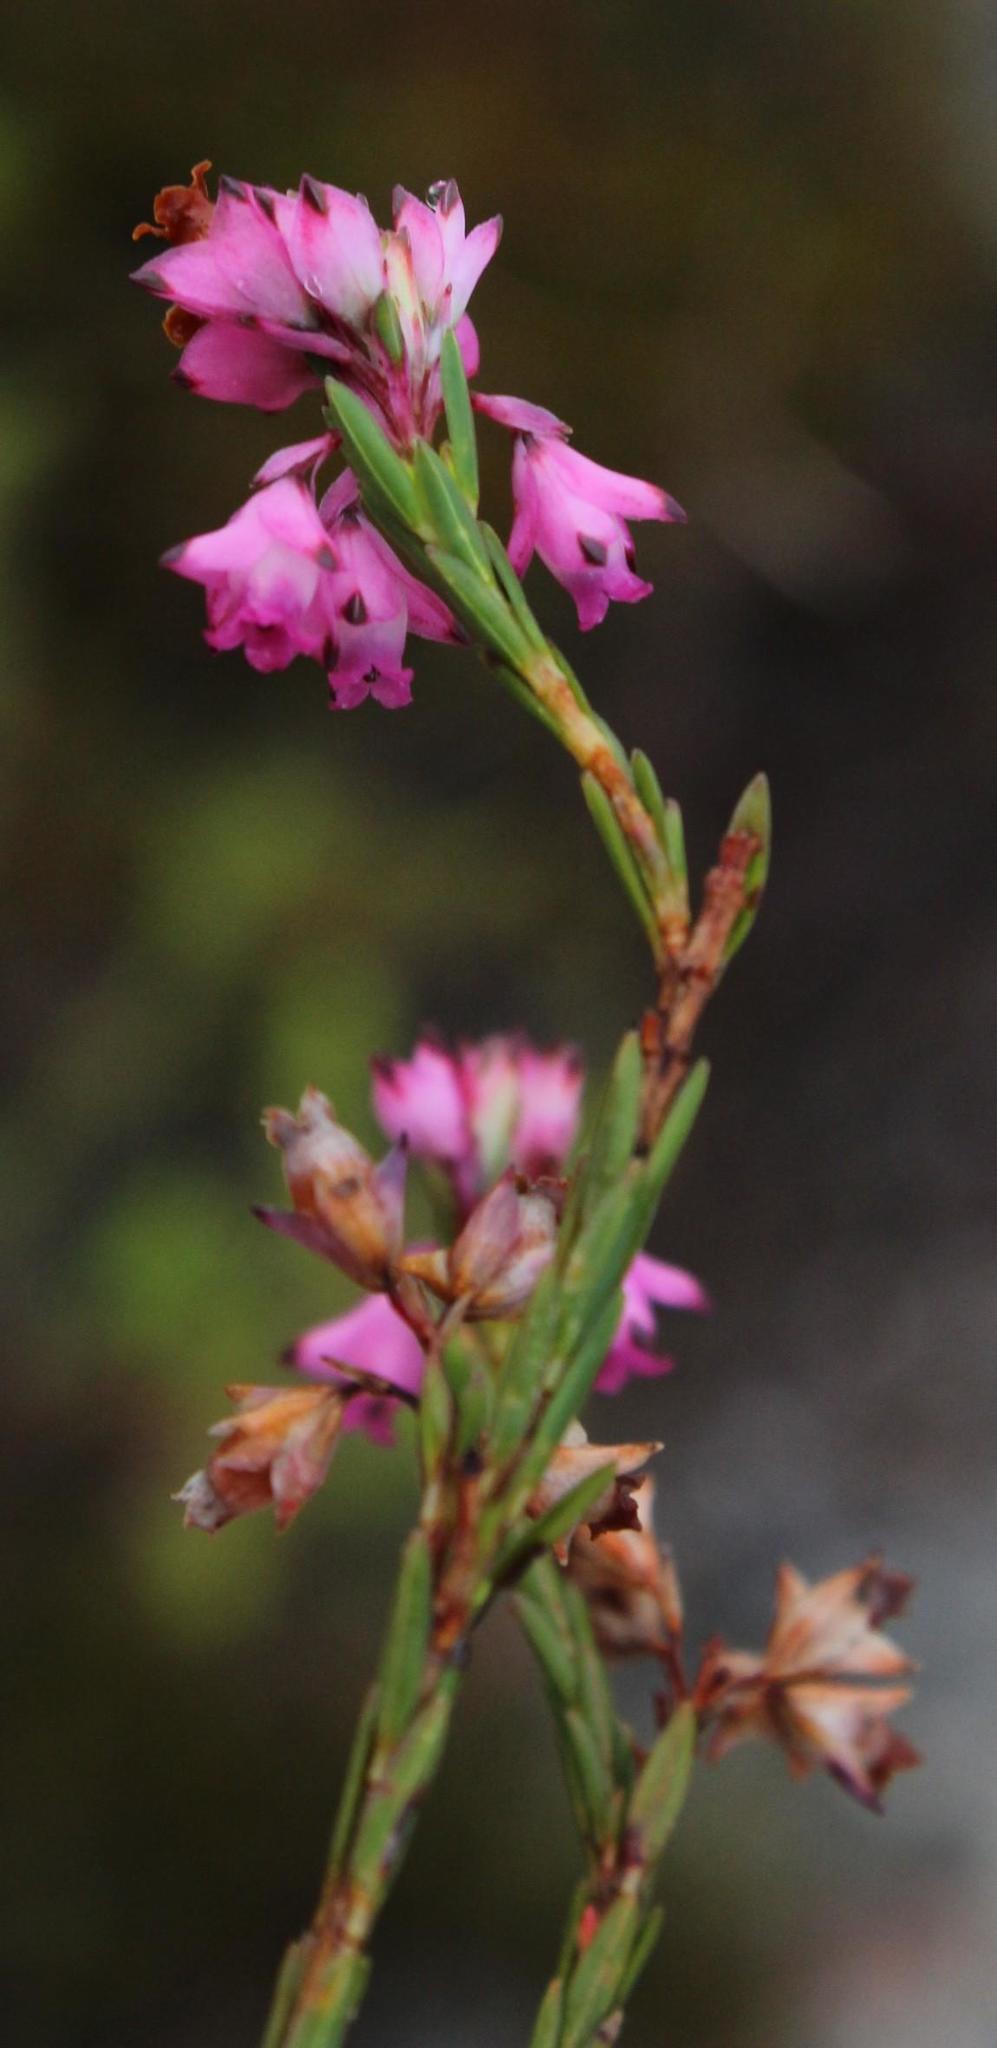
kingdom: Plantae
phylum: Tracheophyta
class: Magnoliopsida
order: Ericales
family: Ericaceae
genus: Erica
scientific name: Erica corifolia
